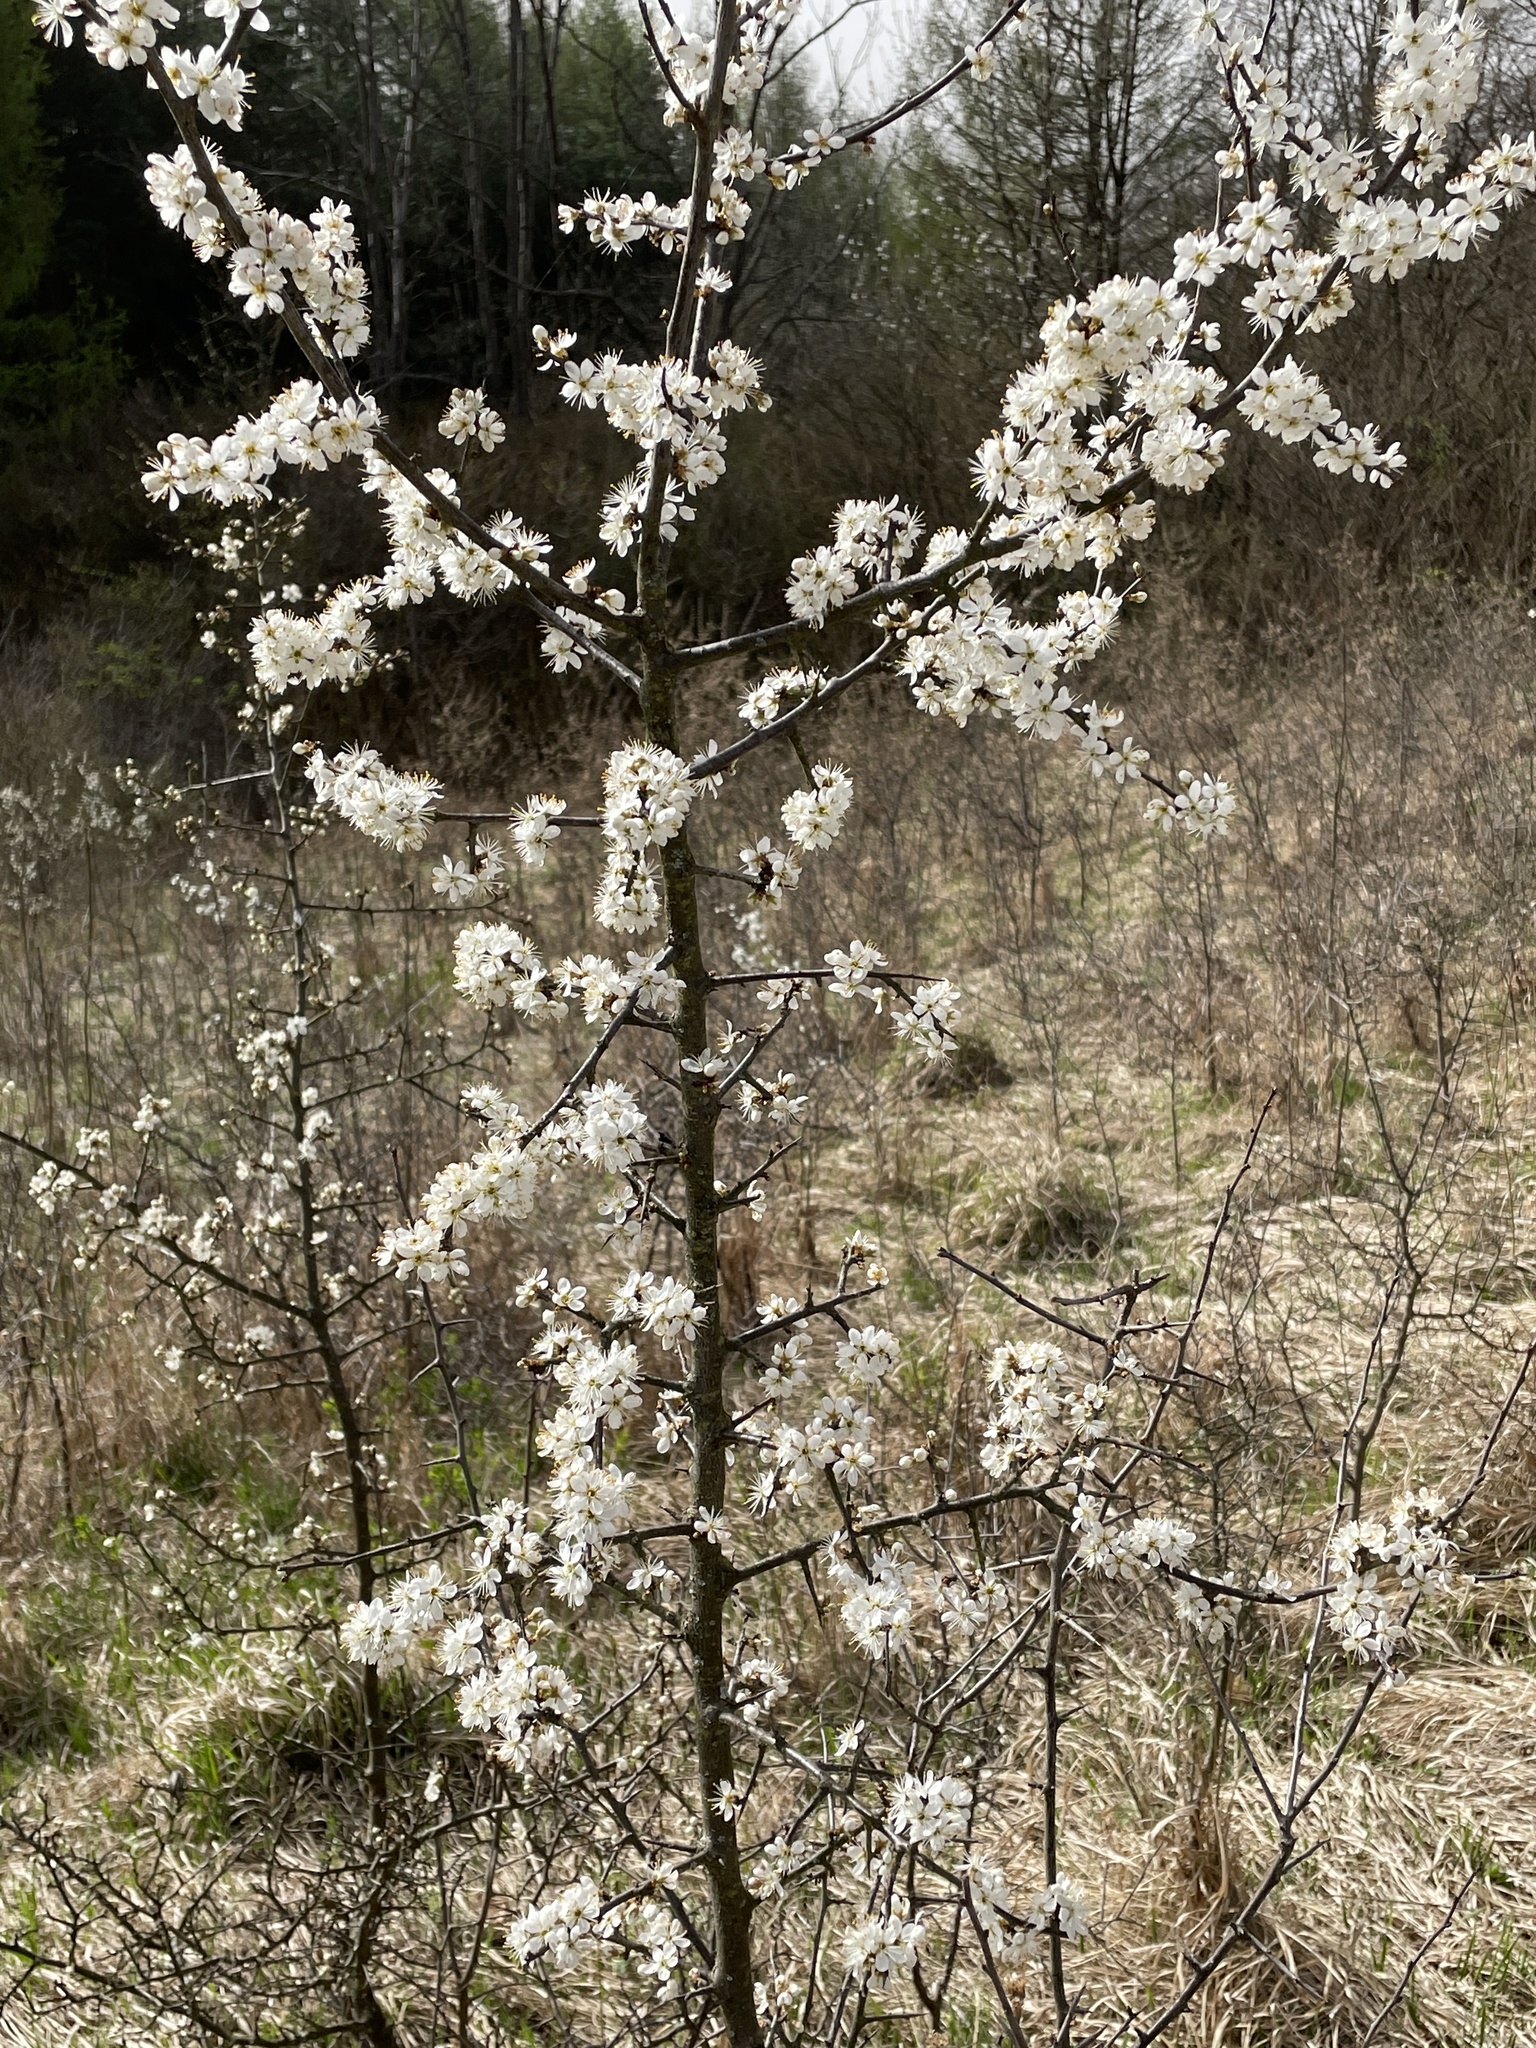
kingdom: Plantae
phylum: Tracheophyta
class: Magnoliopsida
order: Rosales
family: Rosaceae
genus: Prunus
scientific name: Prunus spinosa
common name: Blackthorn
